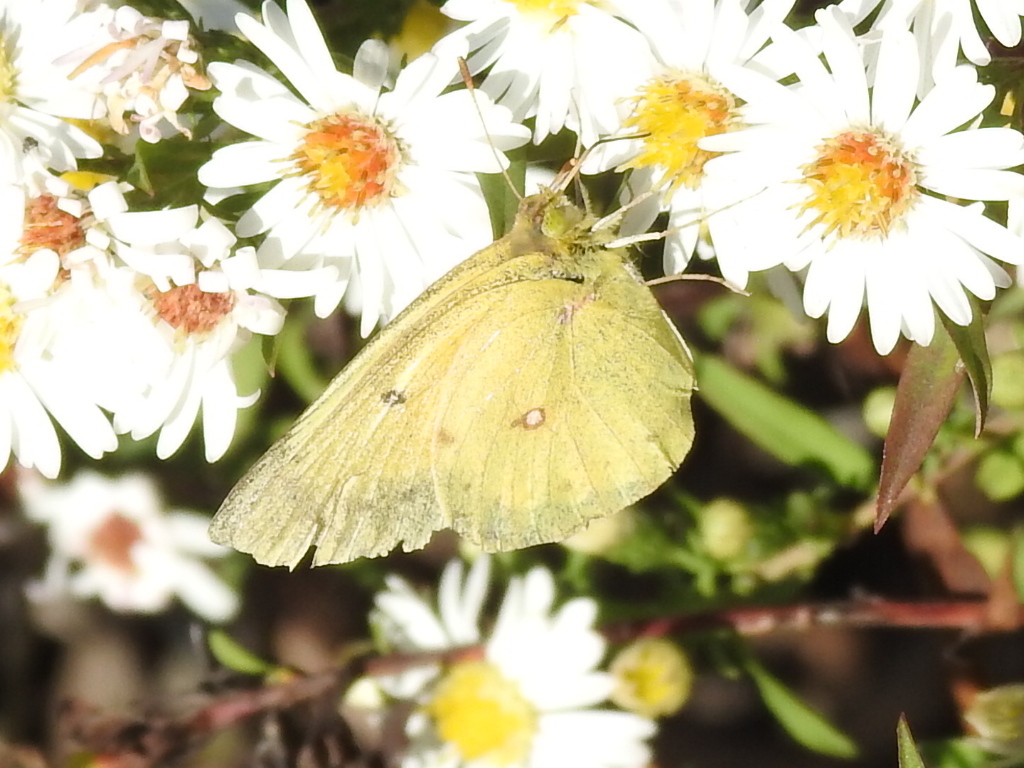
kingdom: Animalia
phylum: Arthropoda
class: Insecta
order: Lepidoptera
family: Pieridae
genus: Colias
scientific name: Colias eurytheme
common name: Alfalfa butterfly
